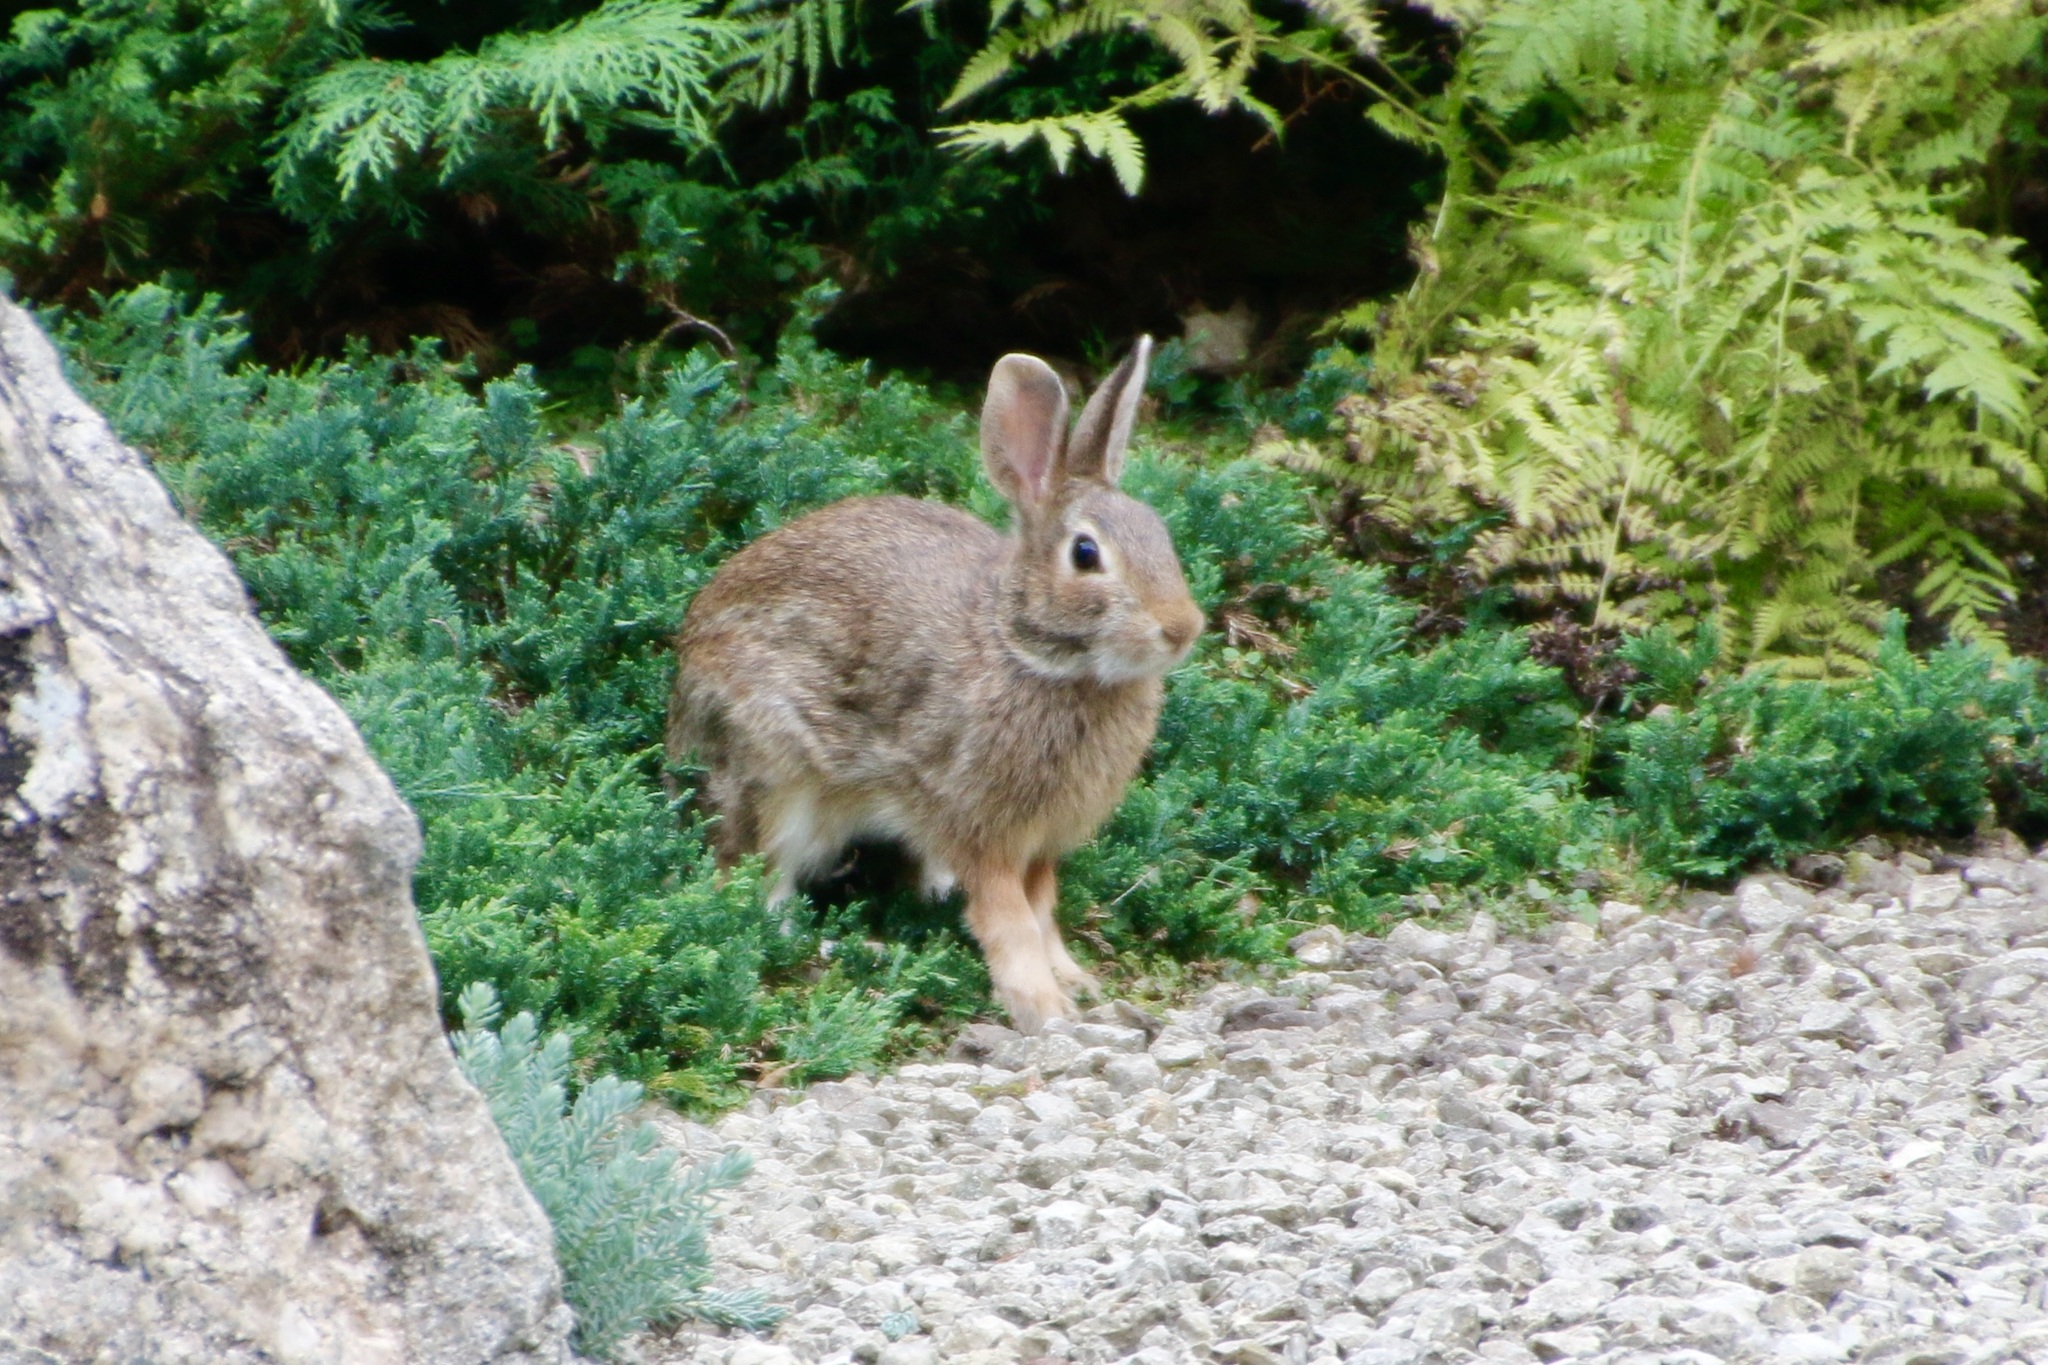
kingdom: Animalia
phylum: Chordata
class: Mammalia
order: Lagomorpha
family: Leporidae
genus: Sylvilagus
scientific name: Sylvilagus floridanus
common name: Eastern cottontail
